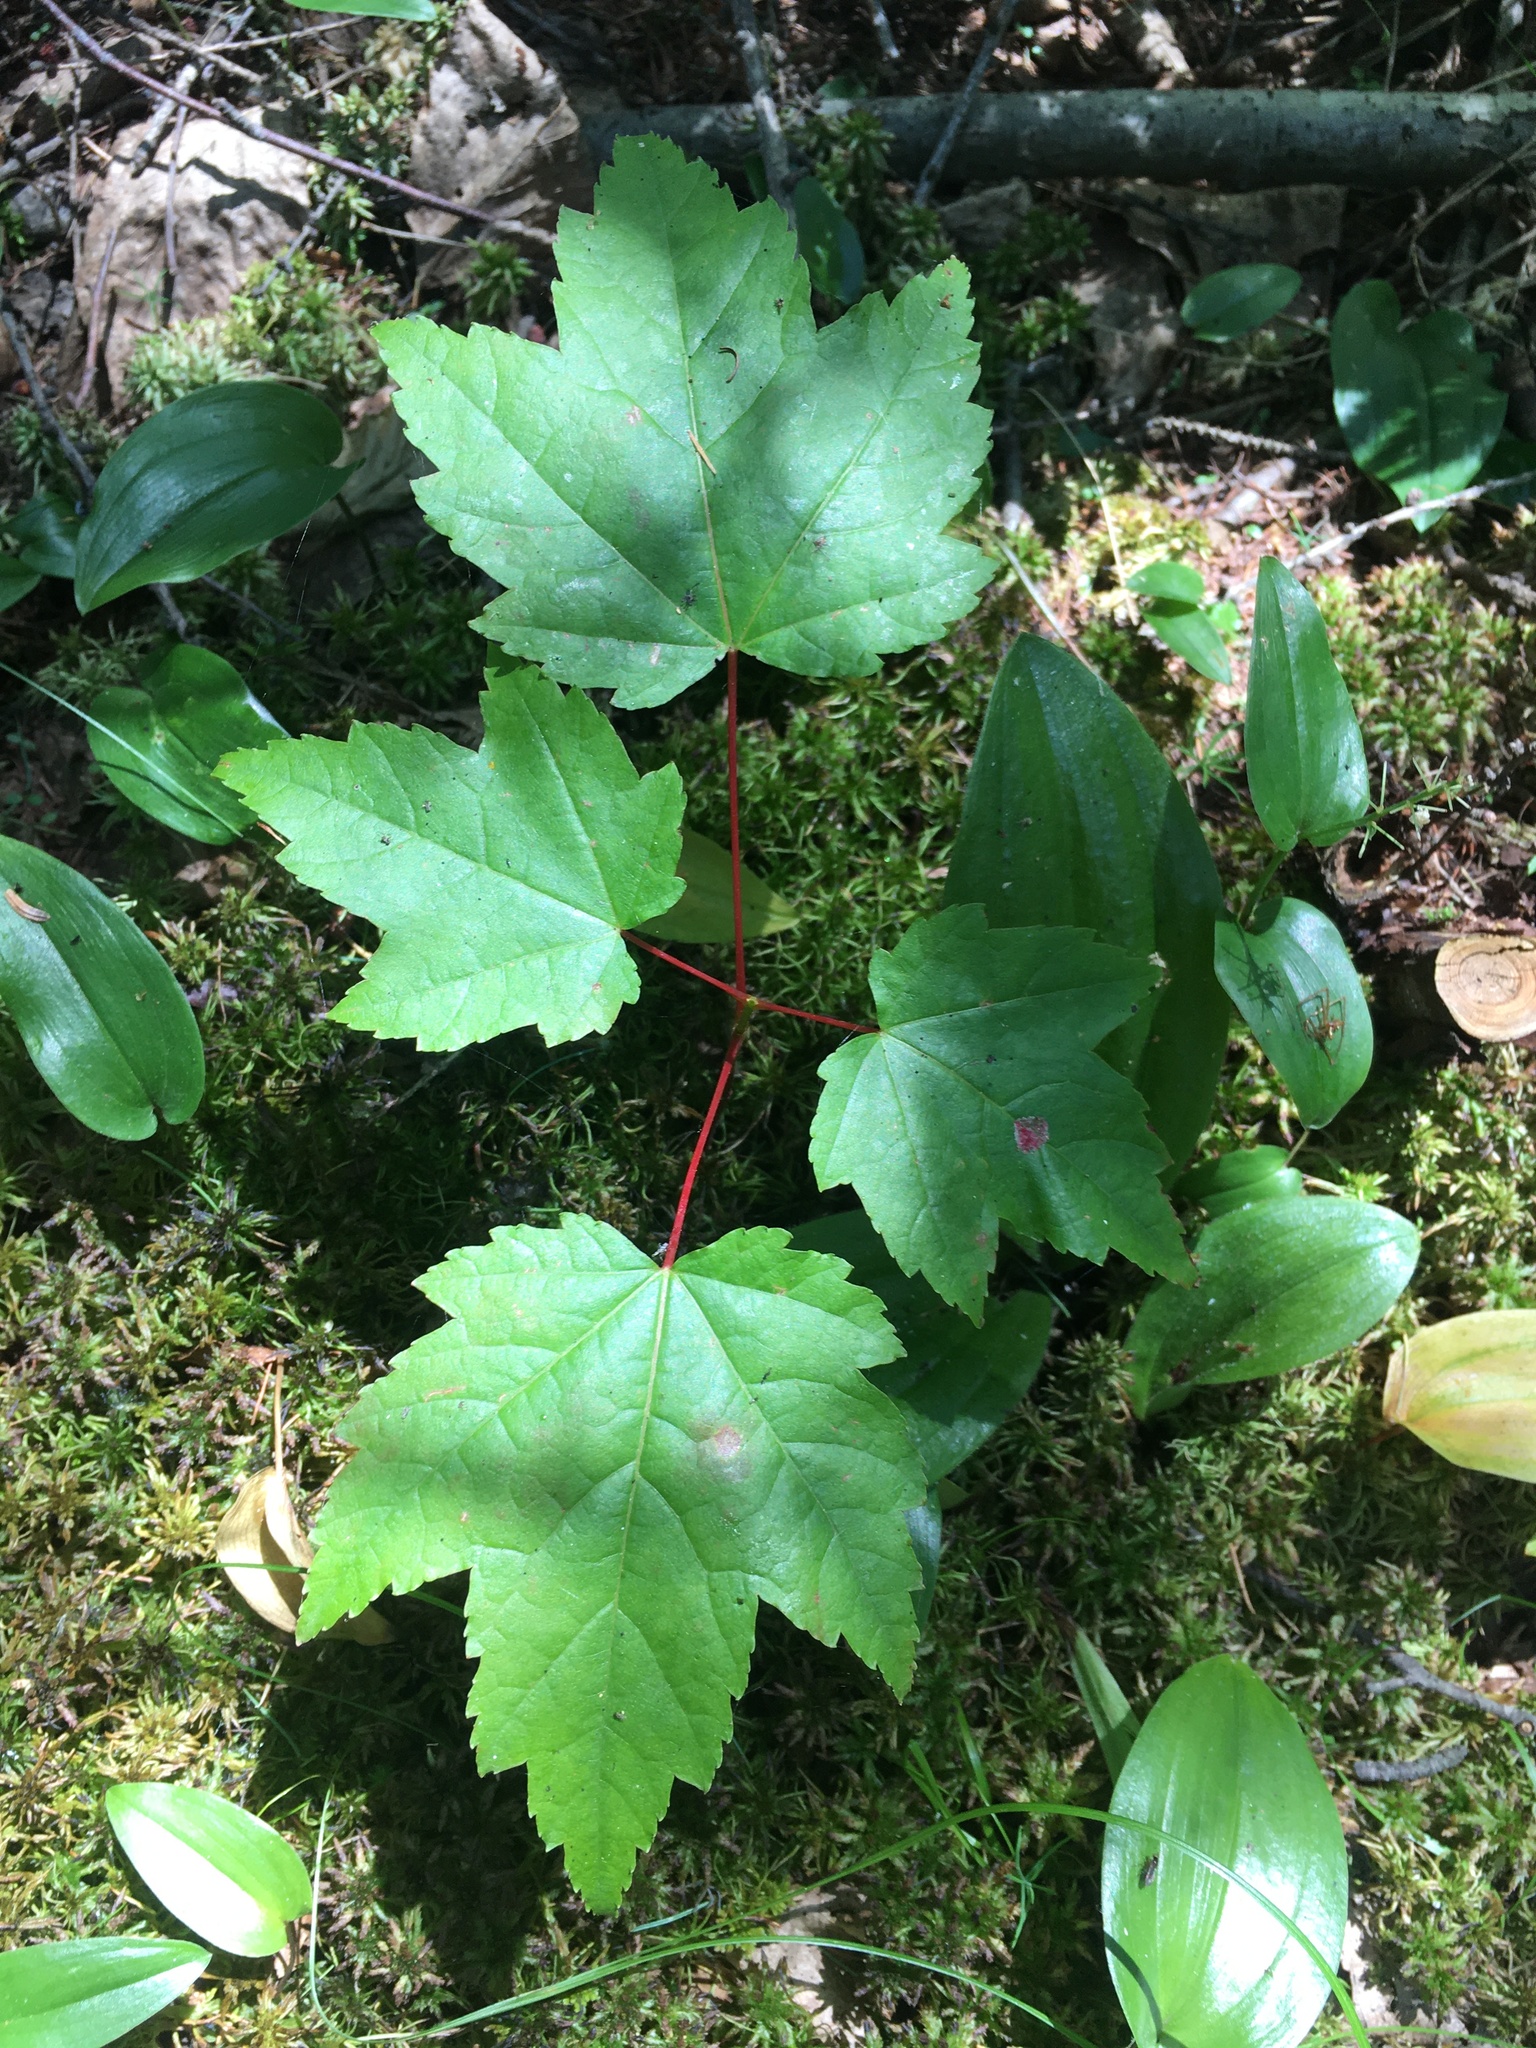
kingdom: Plantae
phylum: Tracheophyta
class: Magnoliopsida
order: Sapindales
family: Sapindaceae
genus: Acer
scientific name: Acer rubrum
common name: Red maple
